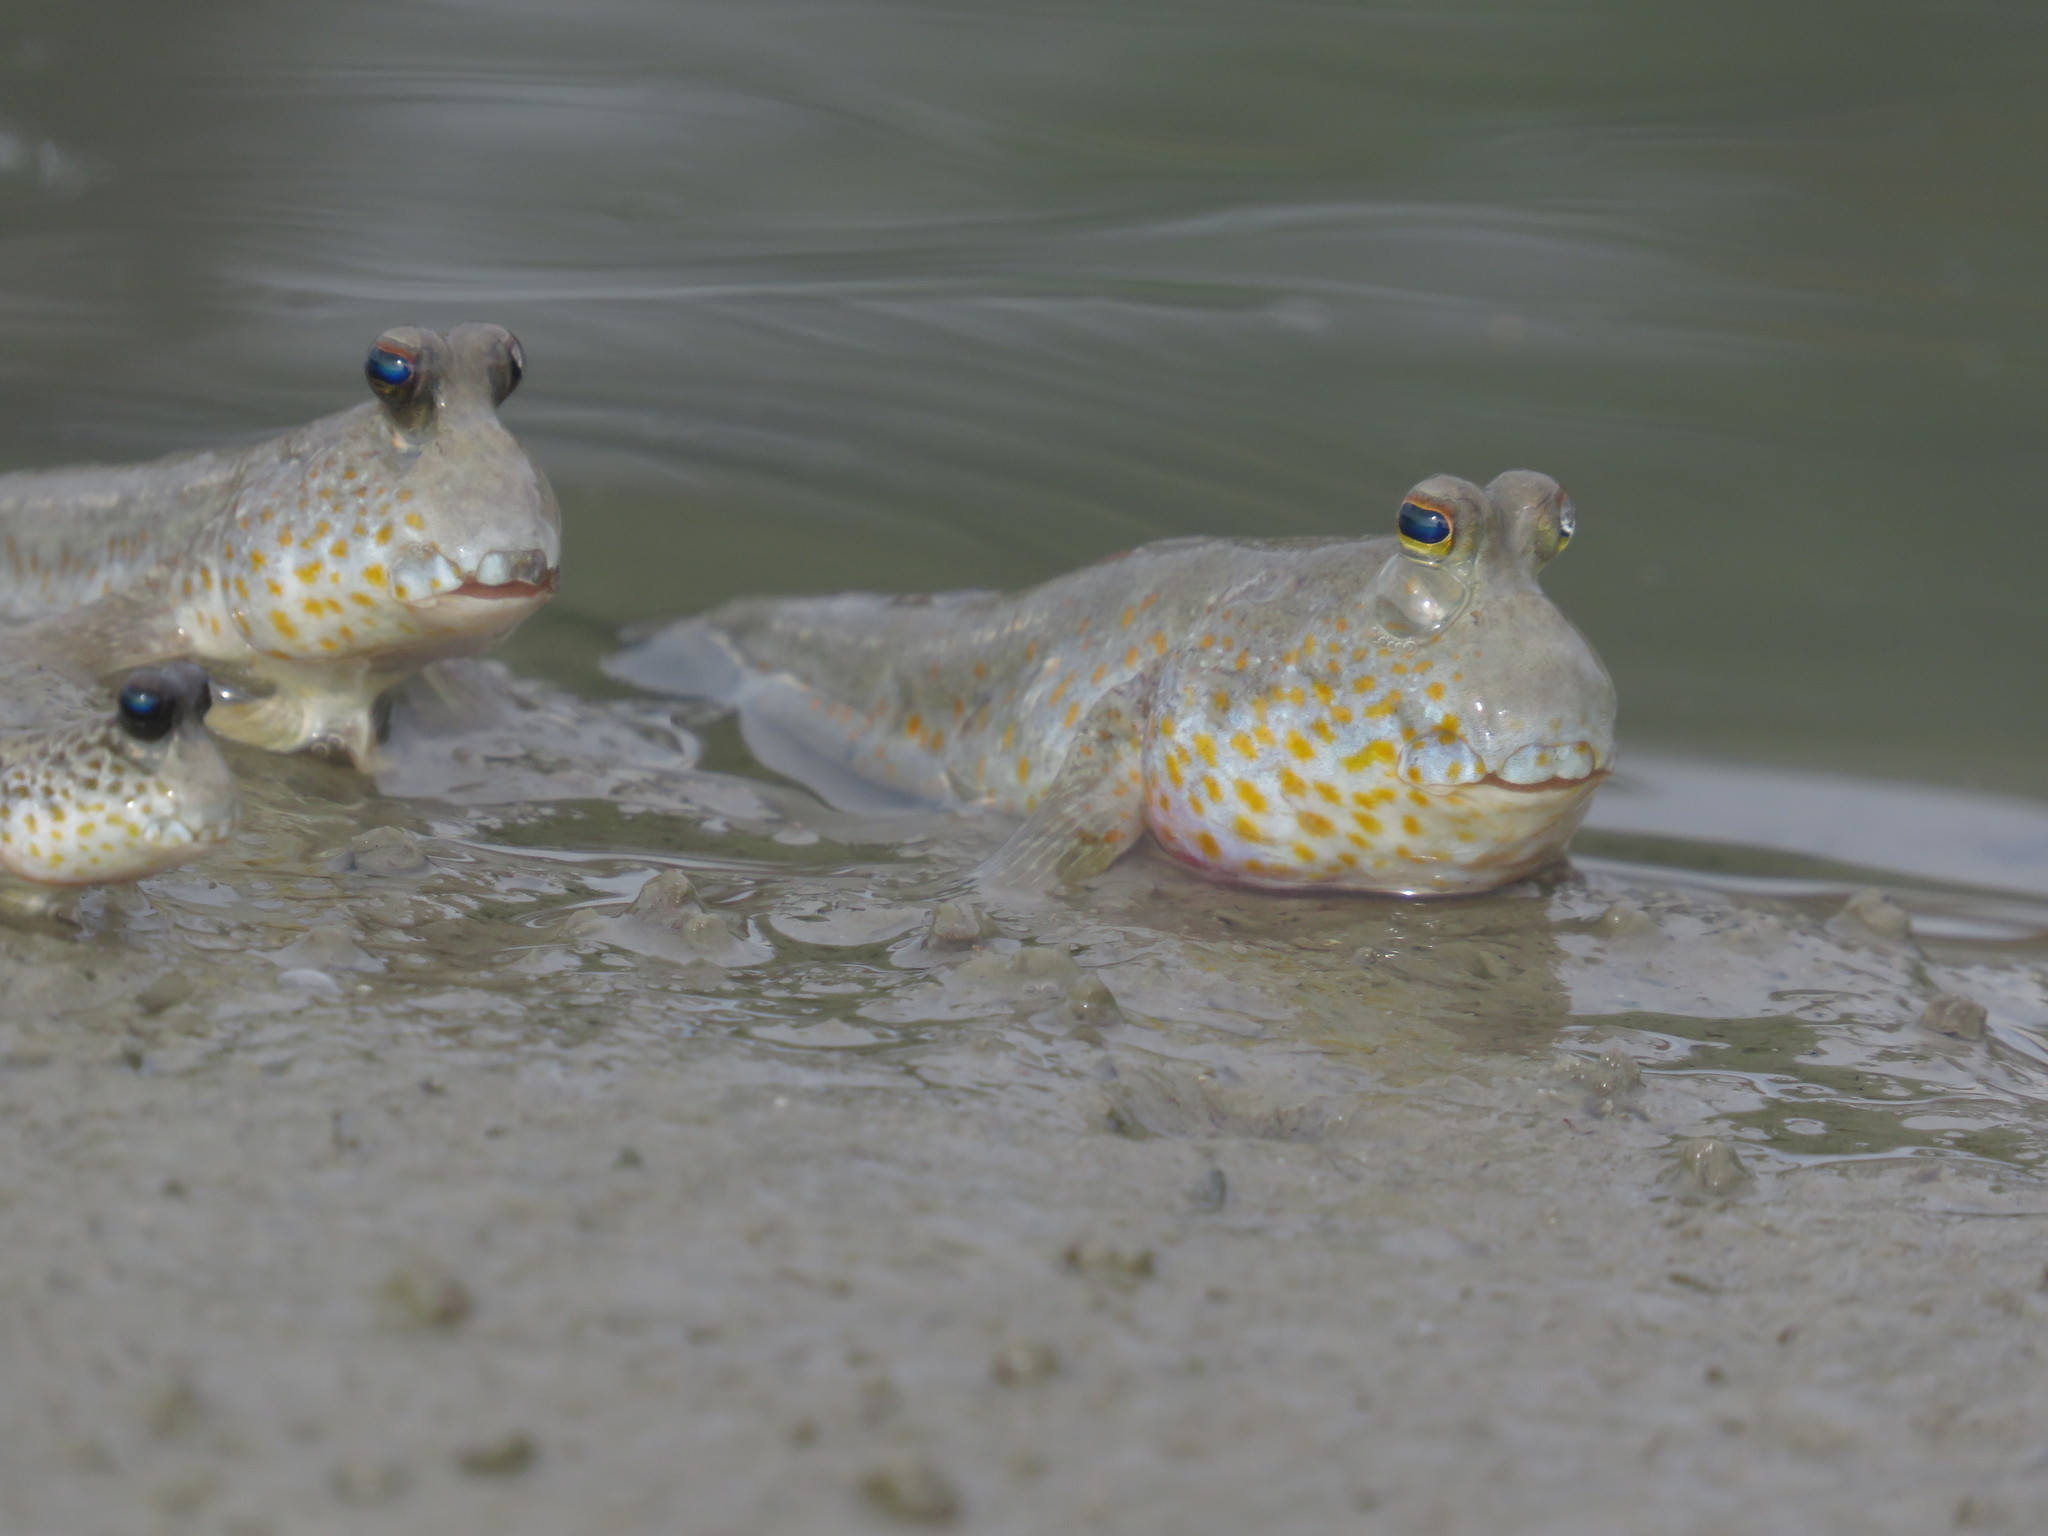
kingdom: Animalia
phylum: Chordata
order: Perciformes
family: Gobiidae
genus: Periophthalmus
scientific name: Periophthalmus chrysospilos
